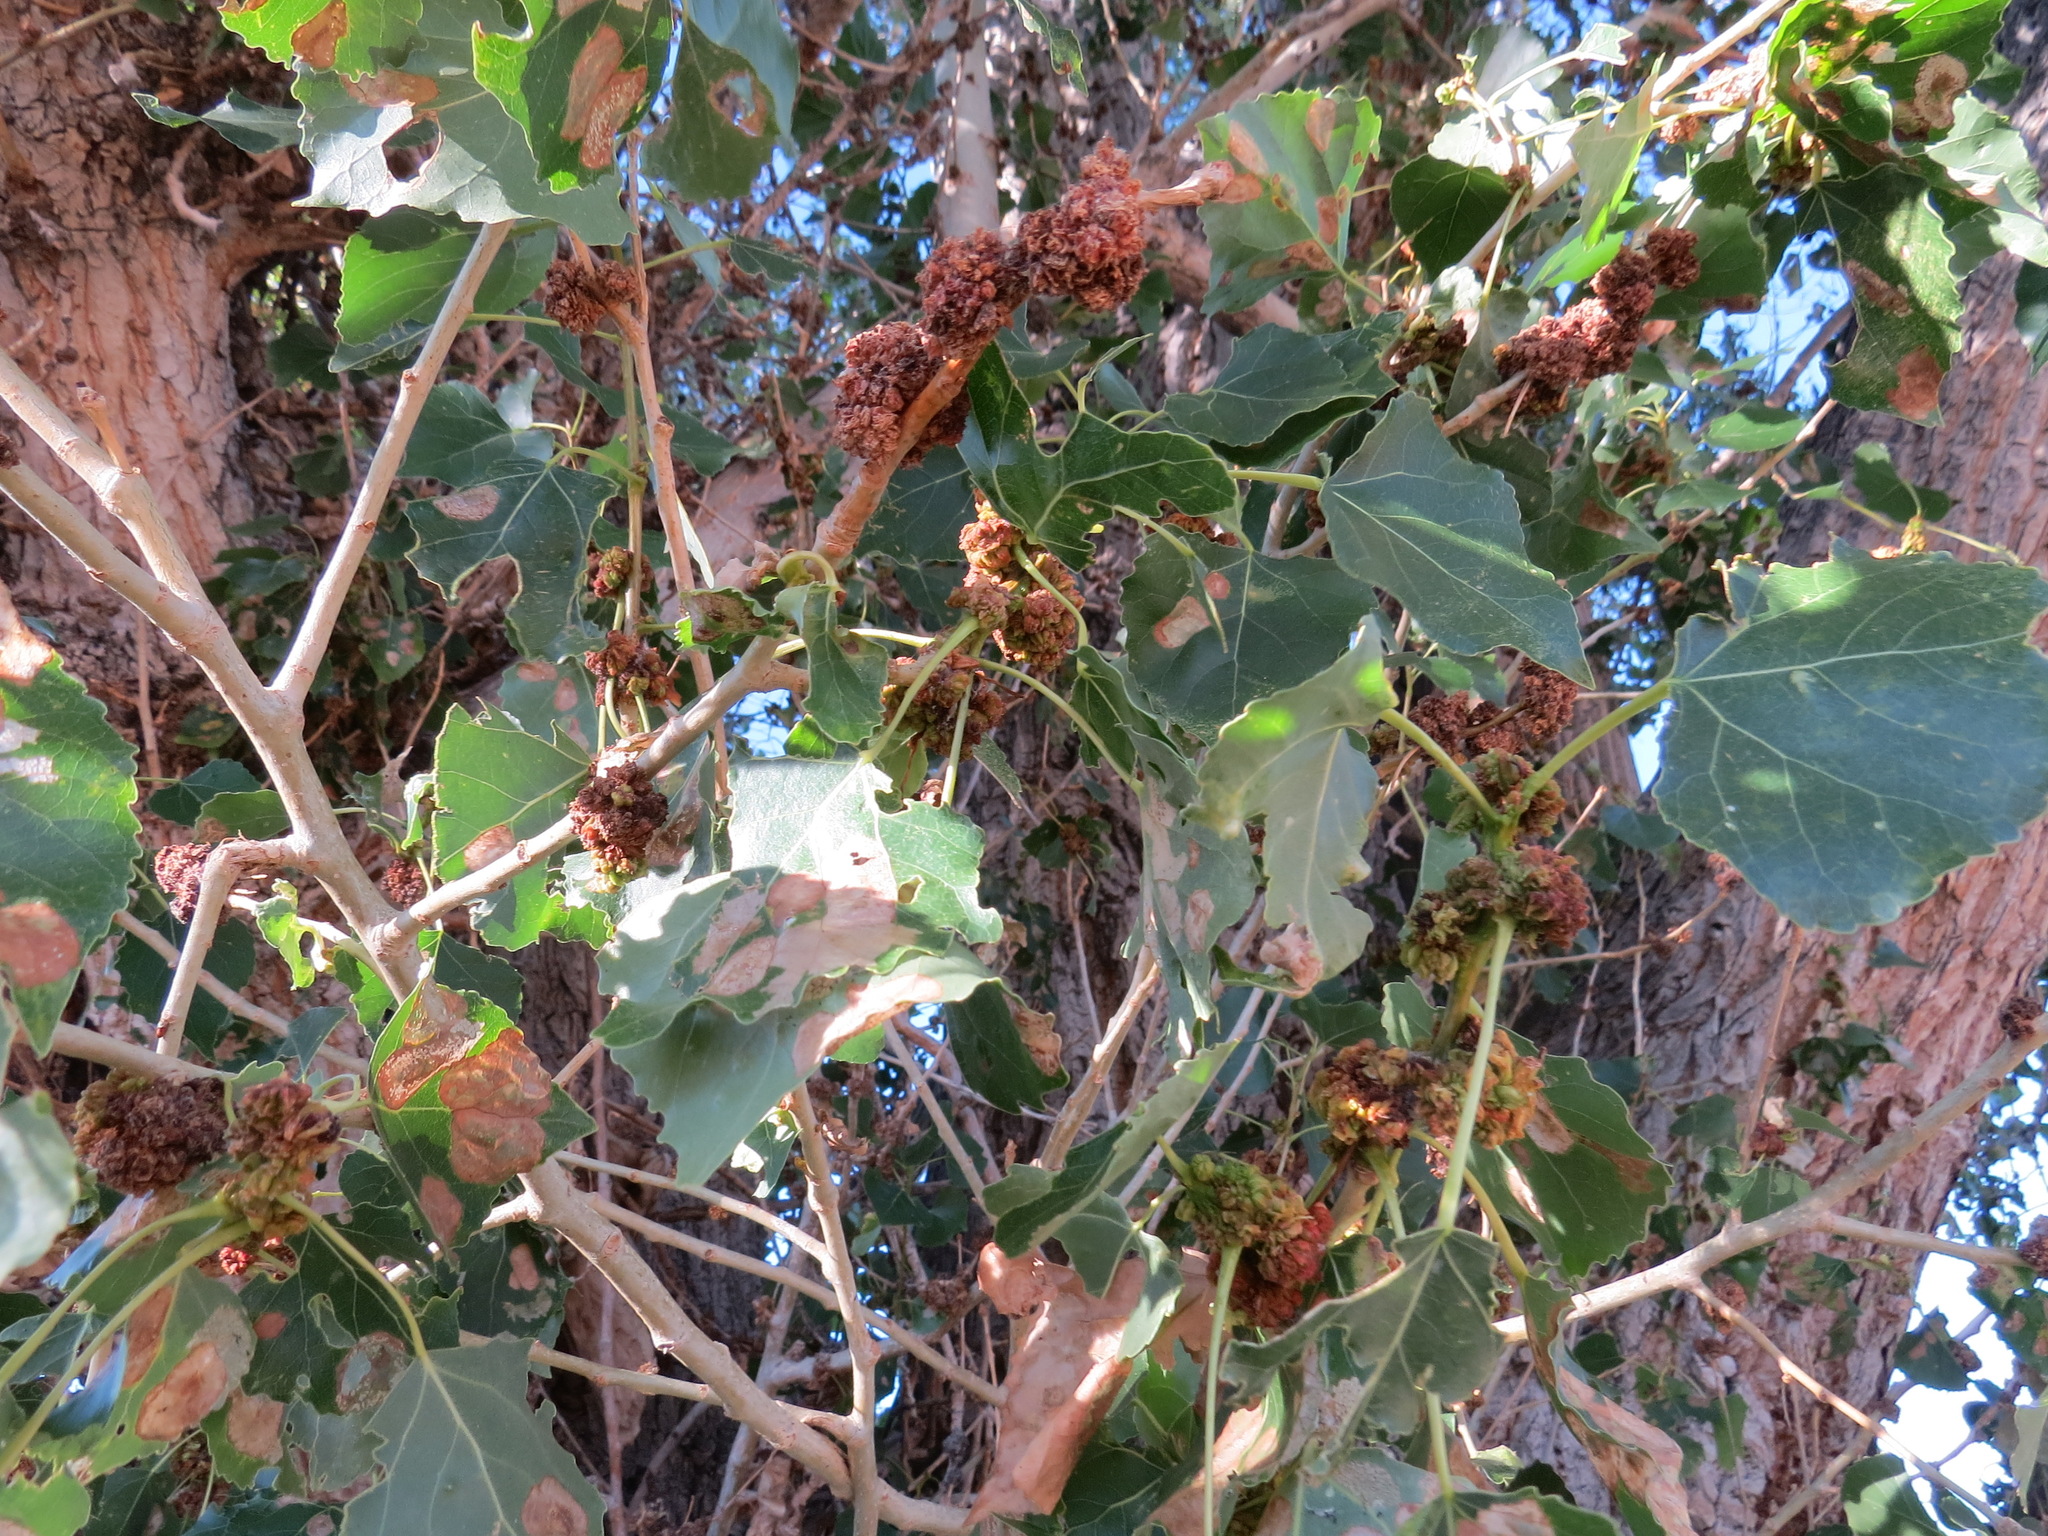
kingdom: Animalia
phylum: Arthropoda
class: Arachnida
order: Trombidiformes
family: Eriophyidae
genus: Aceria
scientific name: Aceria
